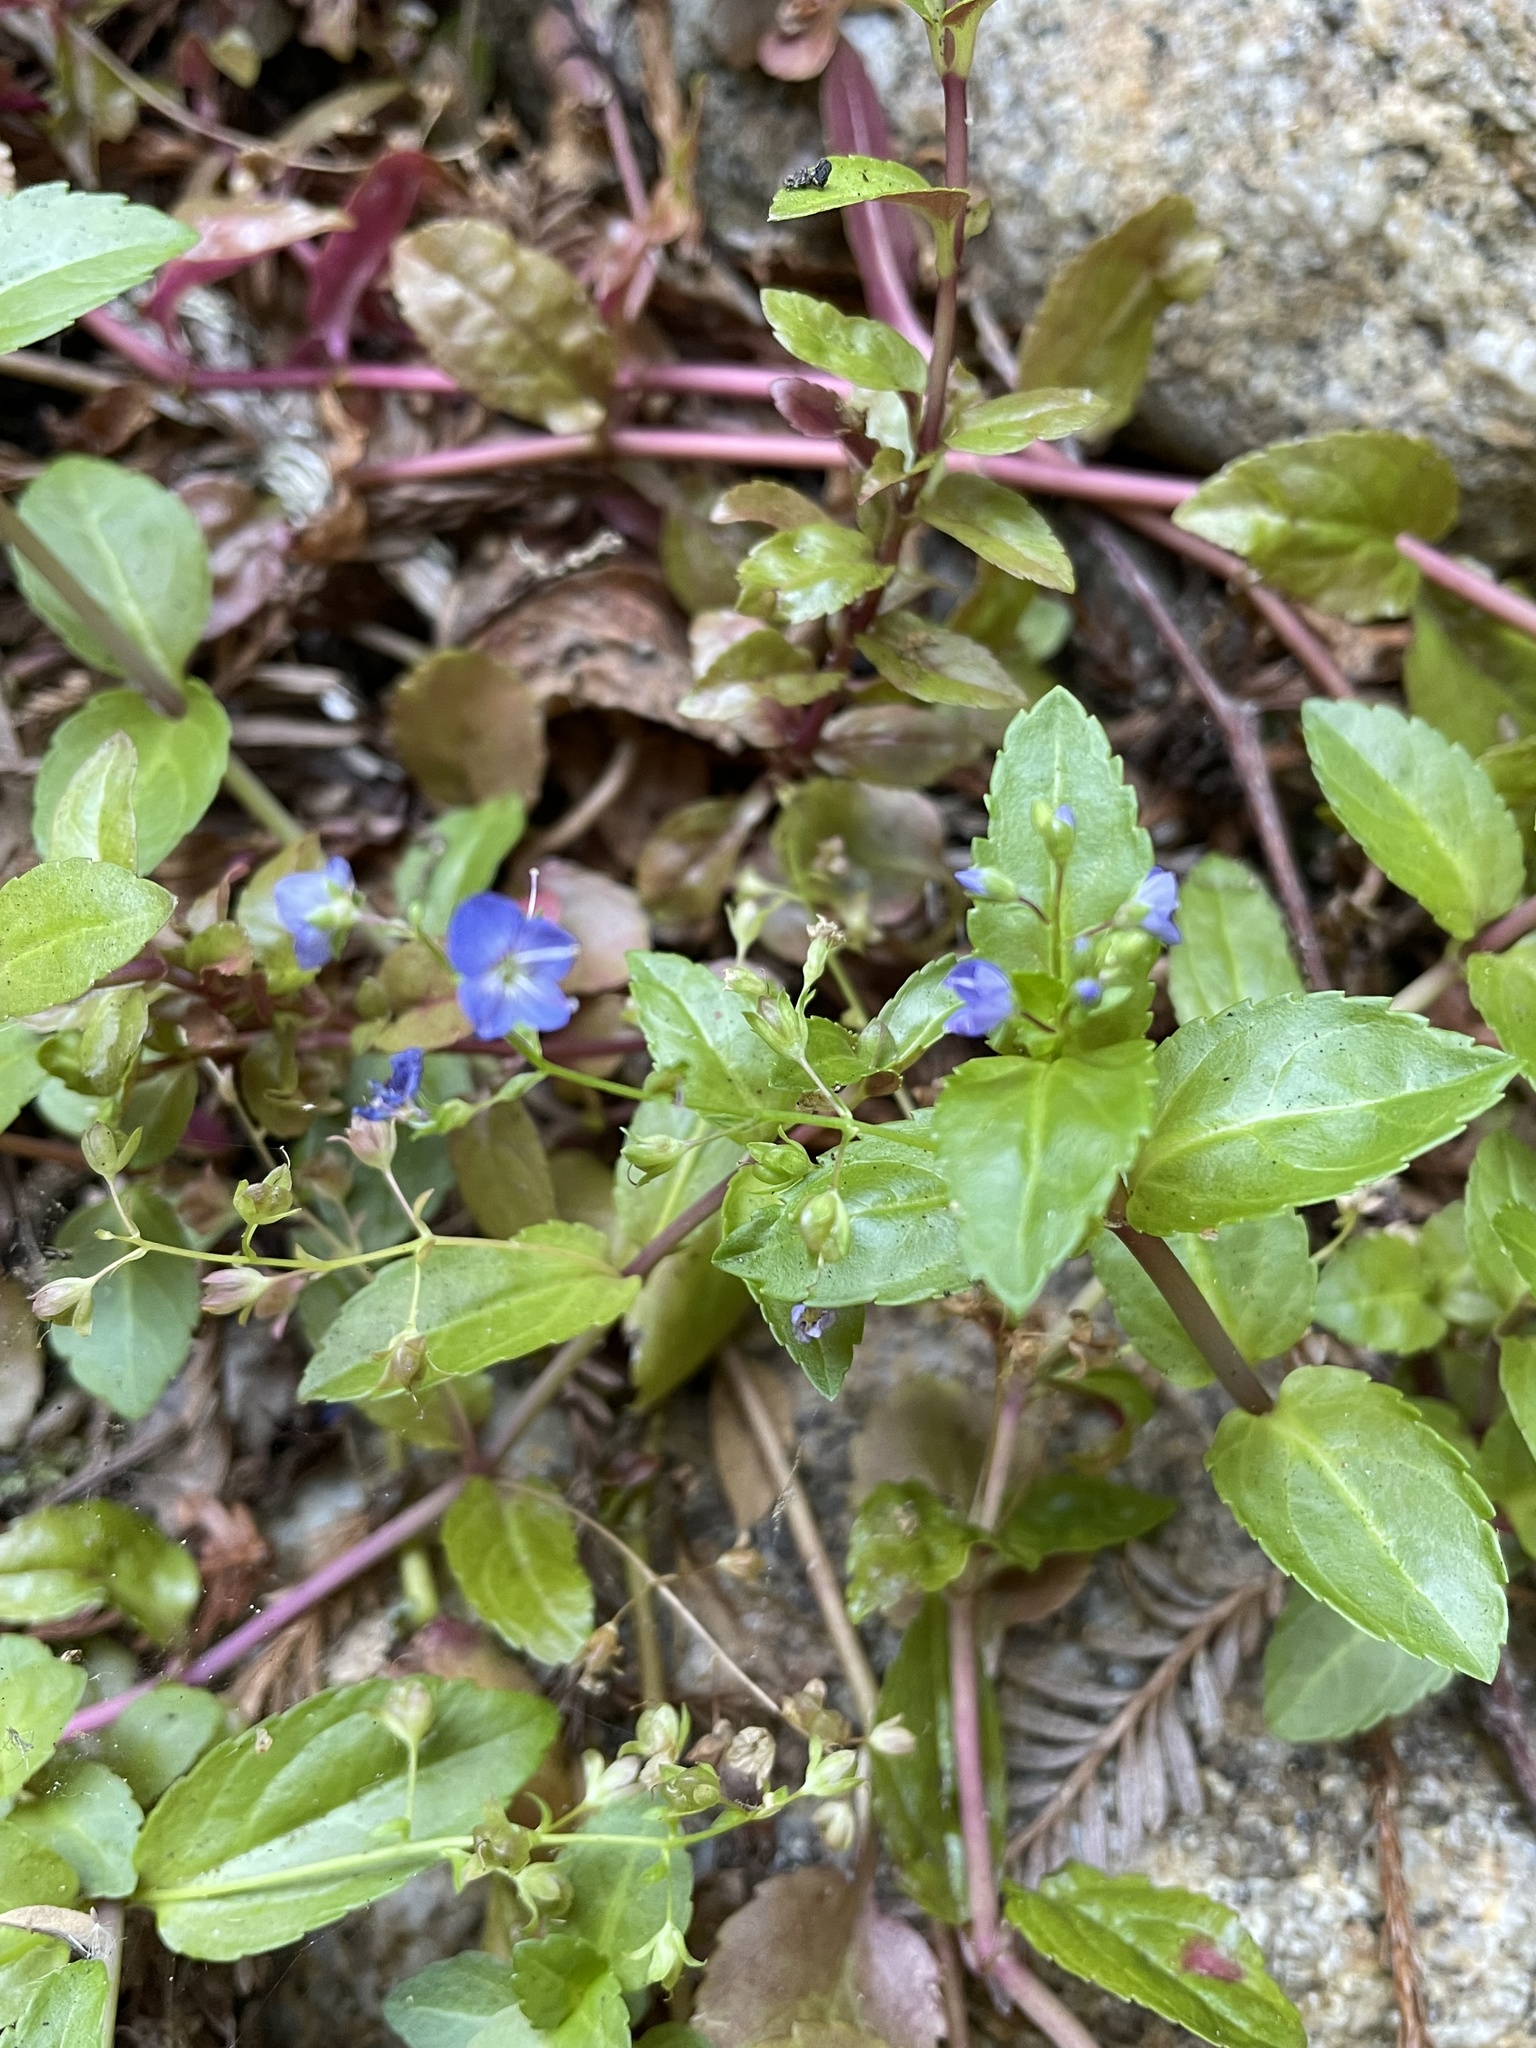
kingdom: Plantae
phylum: Tracheophyta
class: Magnoliopsida
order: Lamiales
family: Plantaginaceae
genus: Veronica
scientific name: Veronica americana
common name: American brooklime
